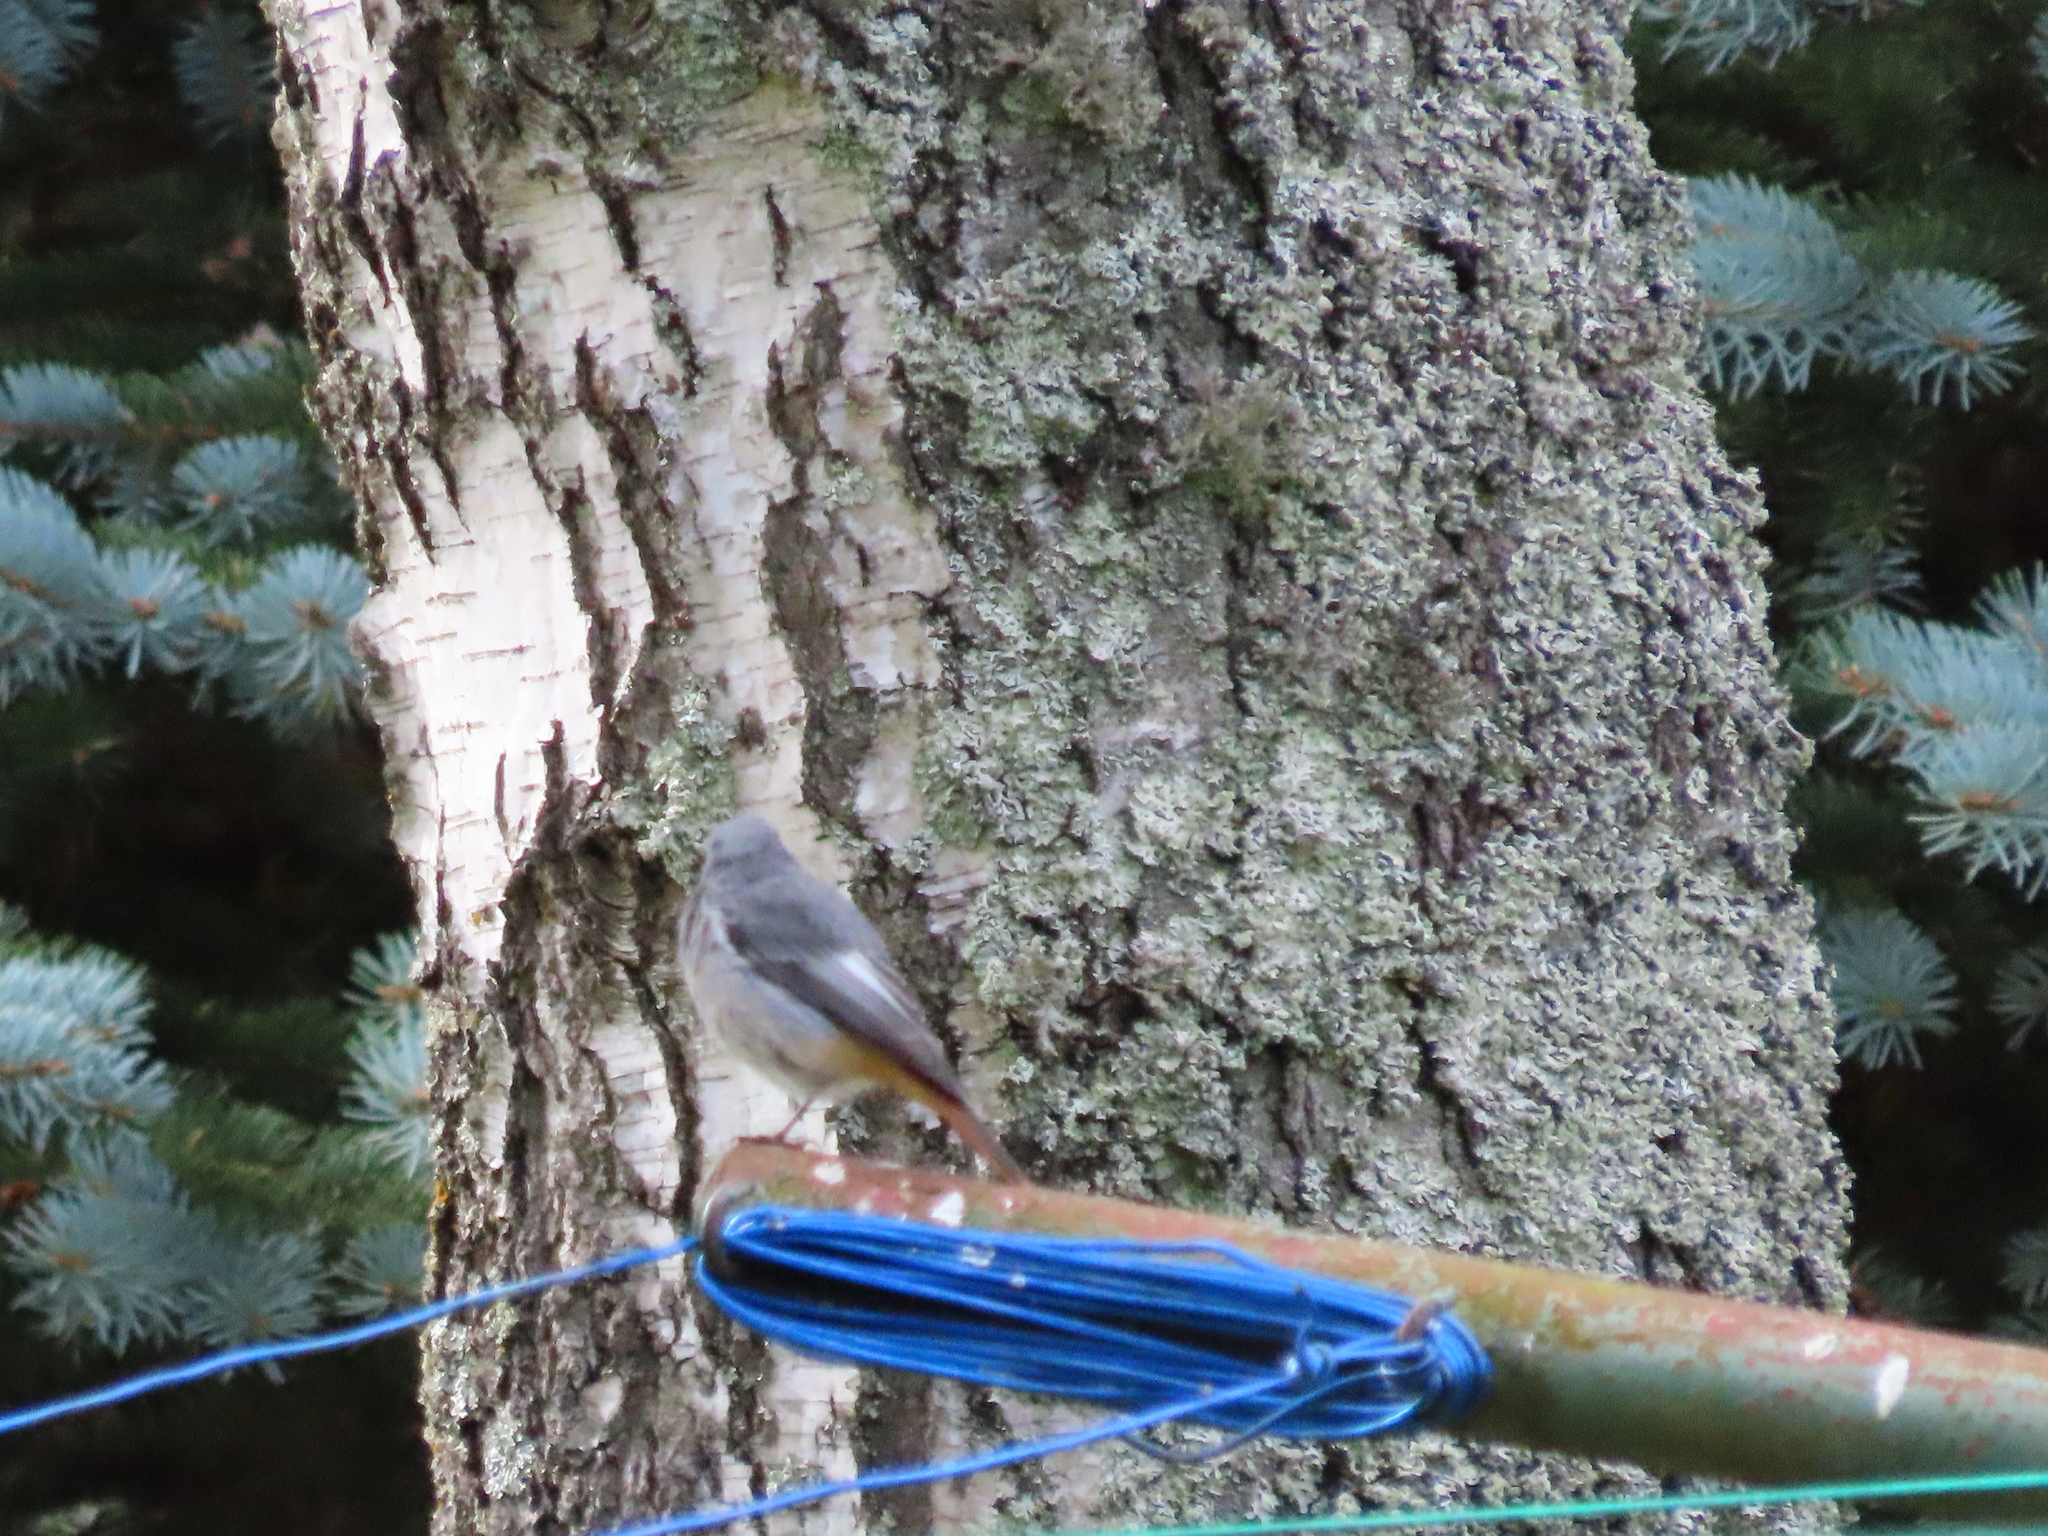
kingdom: Animalia
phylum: Chordata
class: Aves
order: Passeriformes
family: Muscicapidae
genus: Phoenicurus
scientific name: Phoenicurus ochruros
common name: Black redstart
